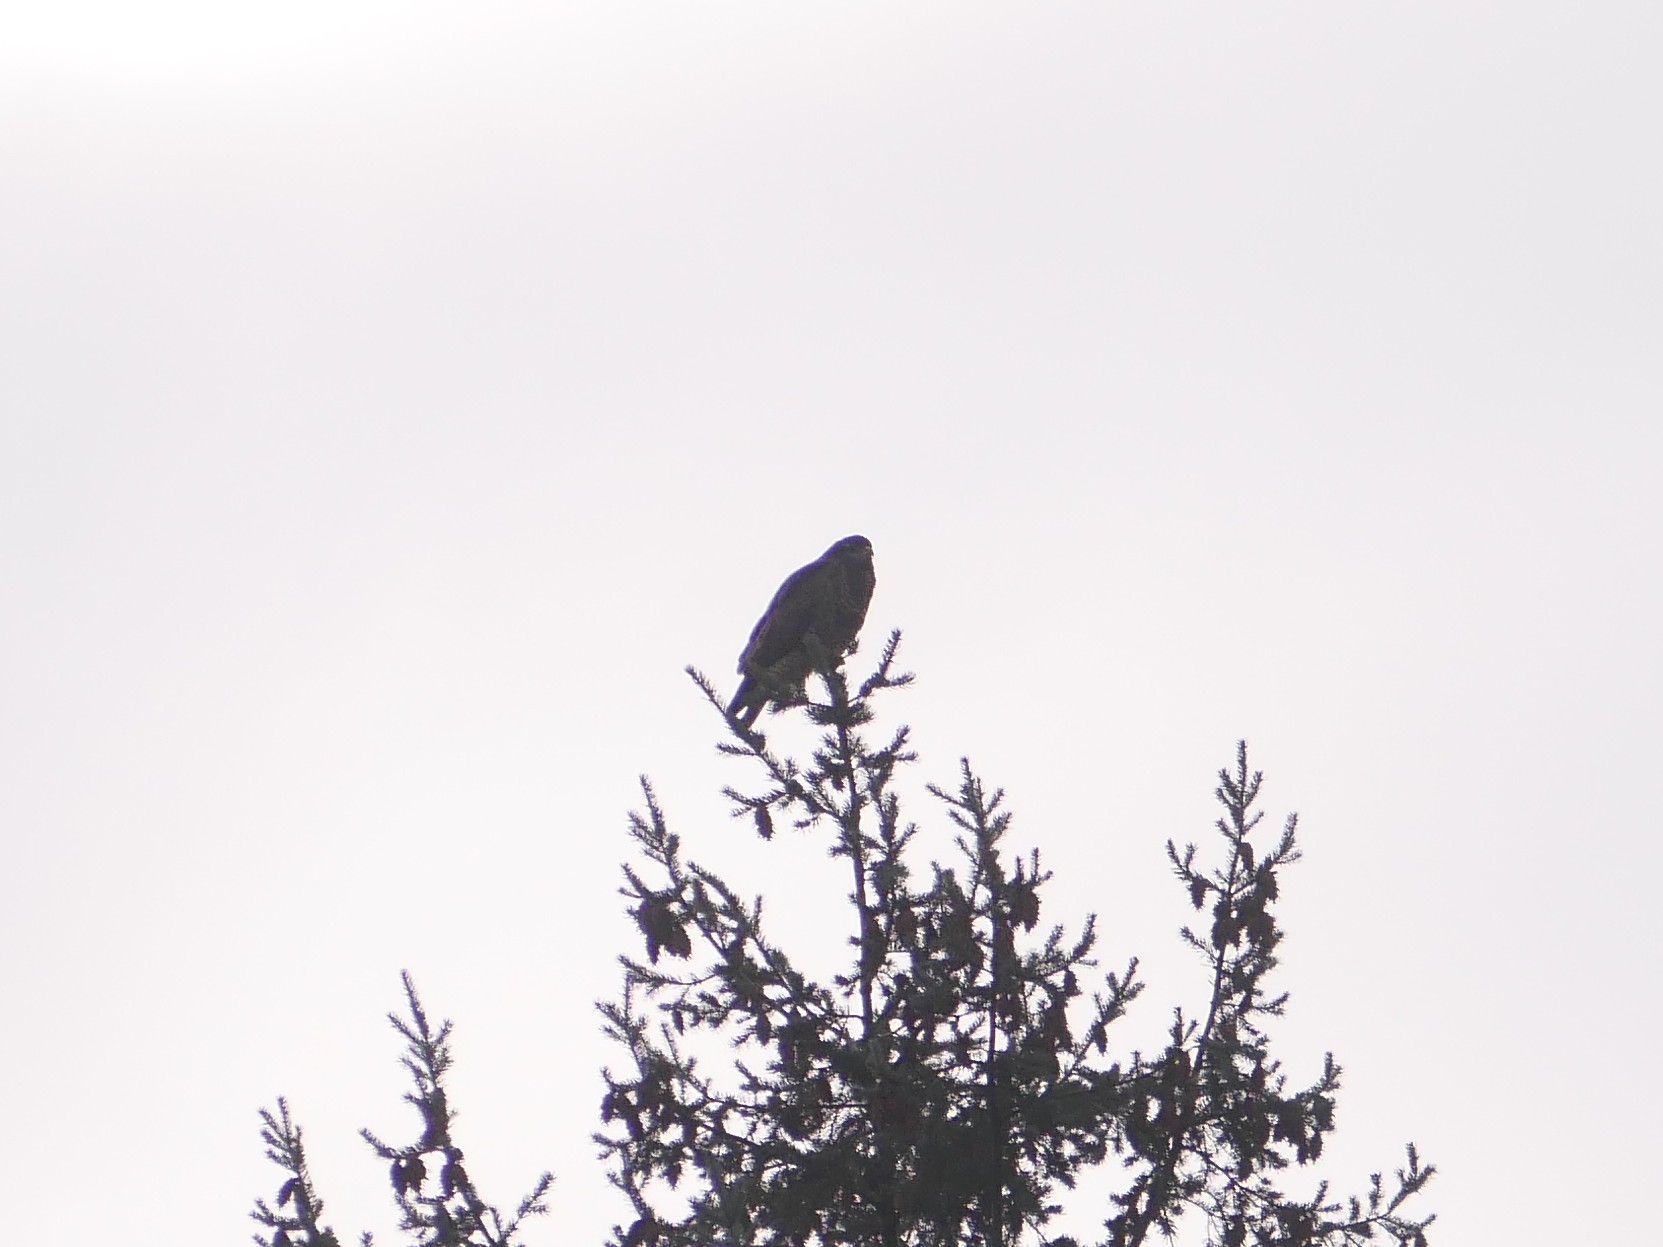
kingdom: Animalia
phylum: Chordata
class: Aves
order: Accipitriformes
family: Accipitridae
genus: Buteo
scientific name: Buteo buteo
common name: Common buzzard
